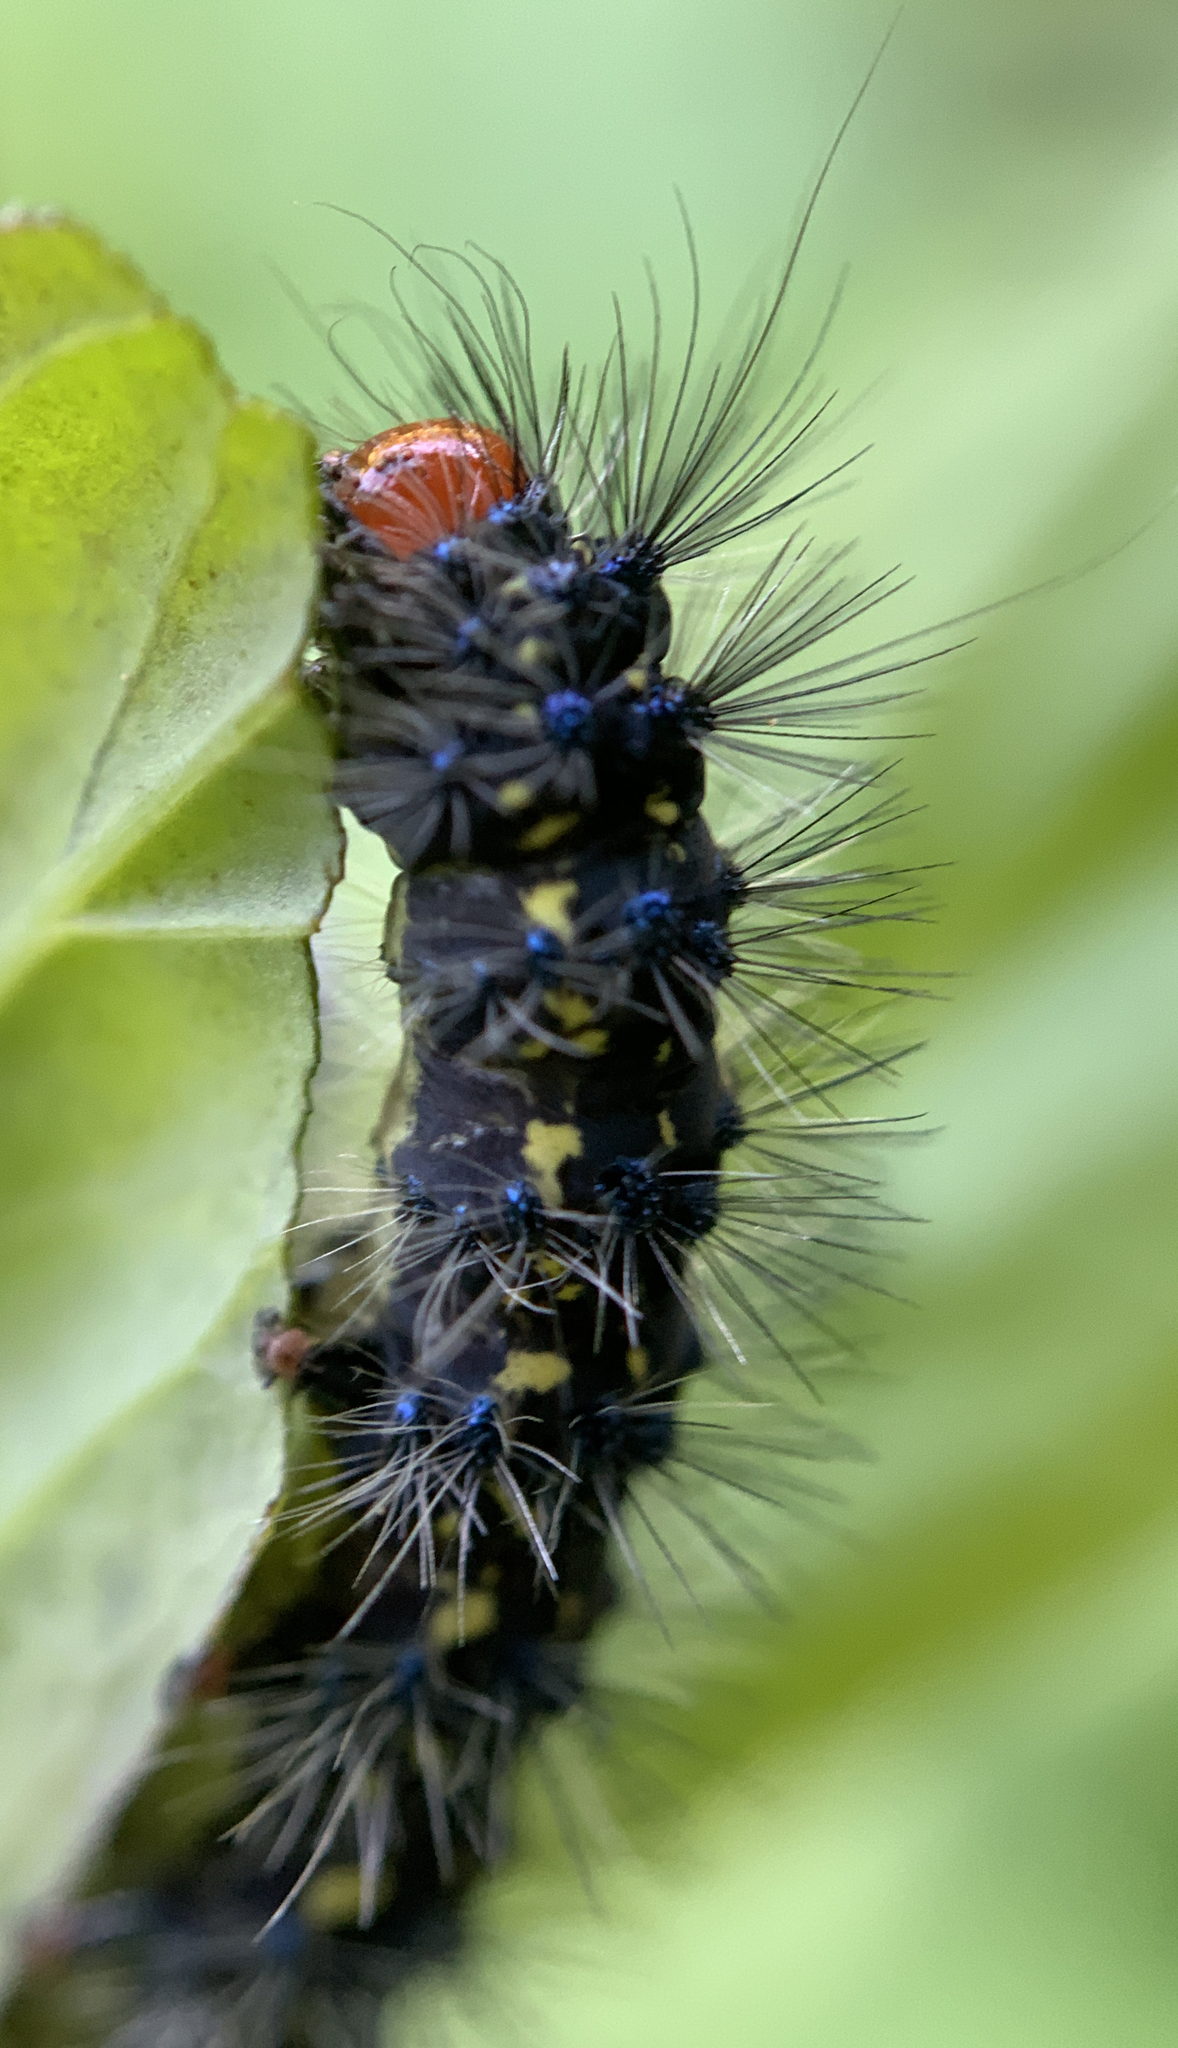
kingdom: Animalia
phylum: Arthropoda
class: Insecta
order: Lepidoptera
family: Erebidae
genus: Gnophaela
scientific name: Gnophaela vermiculata
